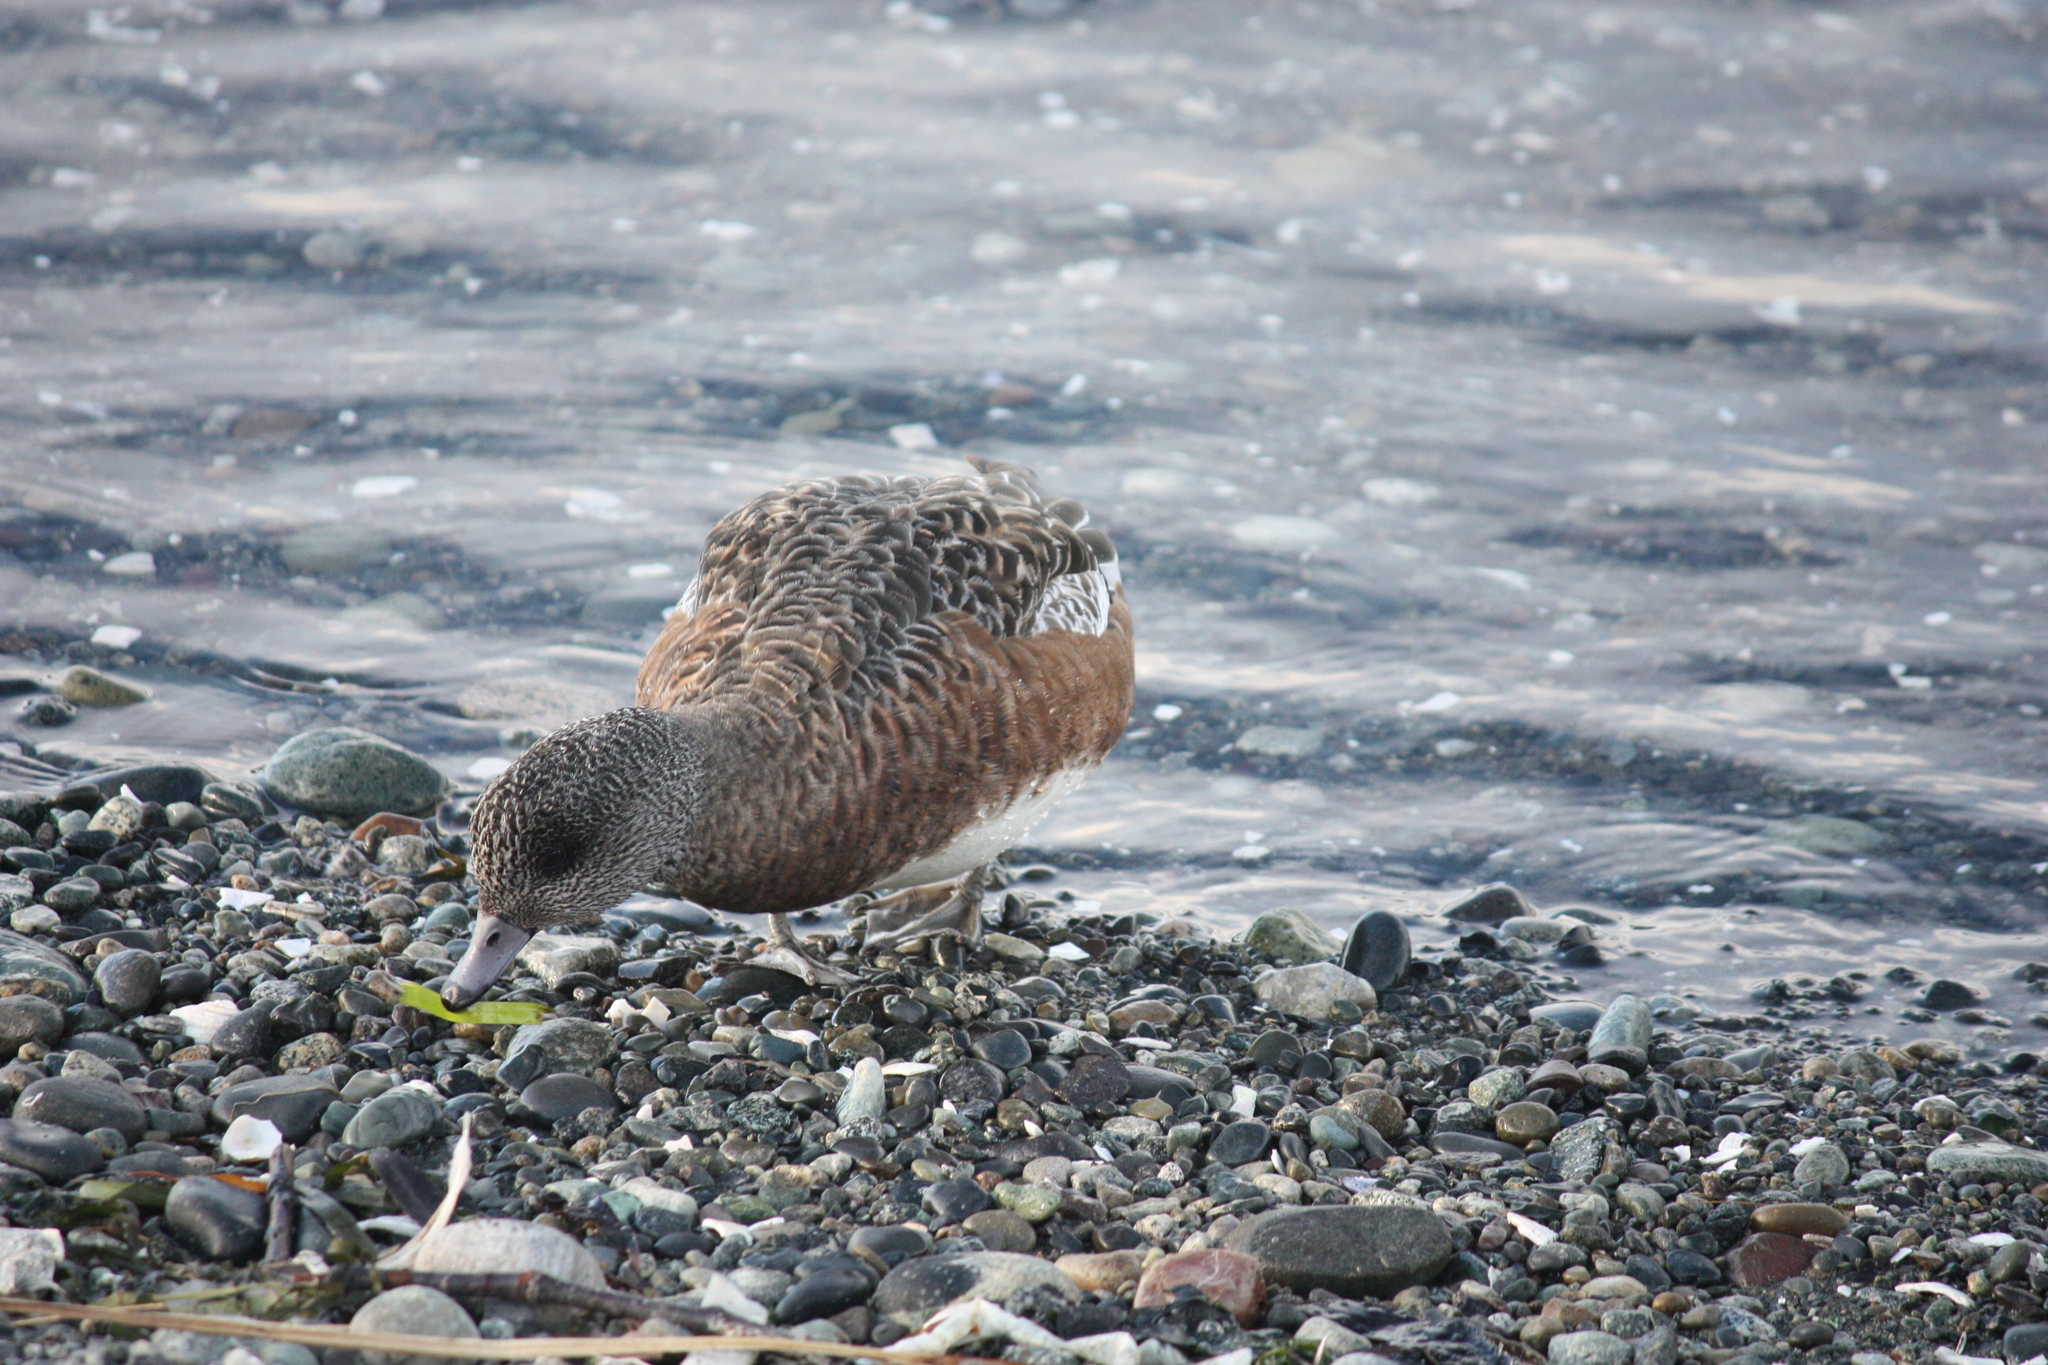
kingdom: Animalia
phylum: Chordata
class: Aves
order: Anseriformes
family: Anatidae
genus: Mareca
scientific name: Mareca americana
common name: American wigeon
